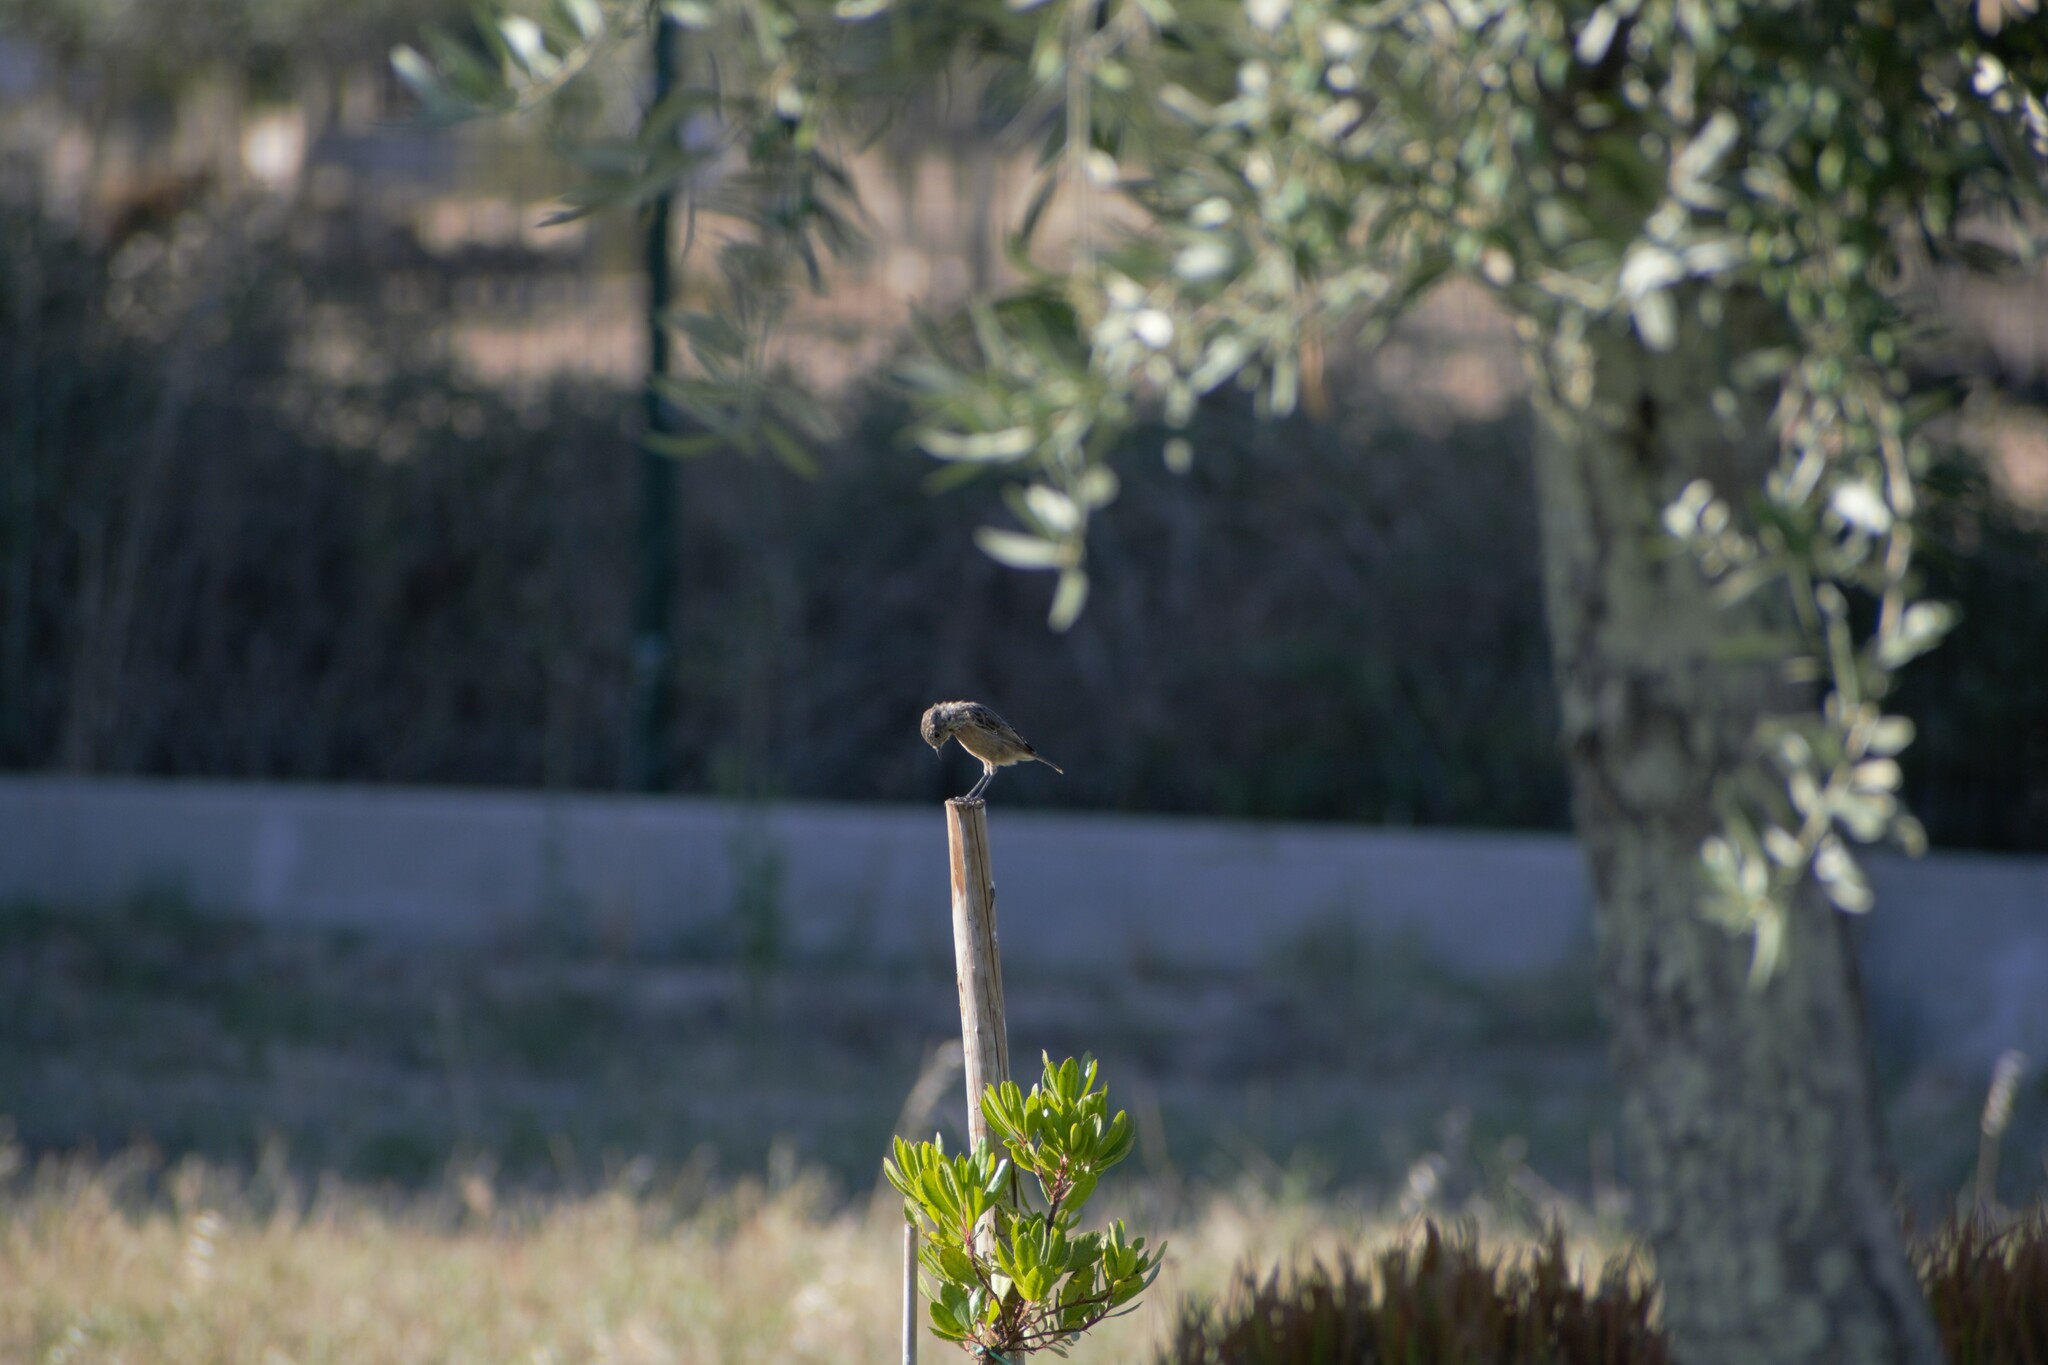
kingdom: Animalia
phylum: Chordata
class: Aves
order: Passeriformes
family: Muscicapidae
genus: Saxicola
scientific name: Saxicola rubicola
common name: European stonechat
